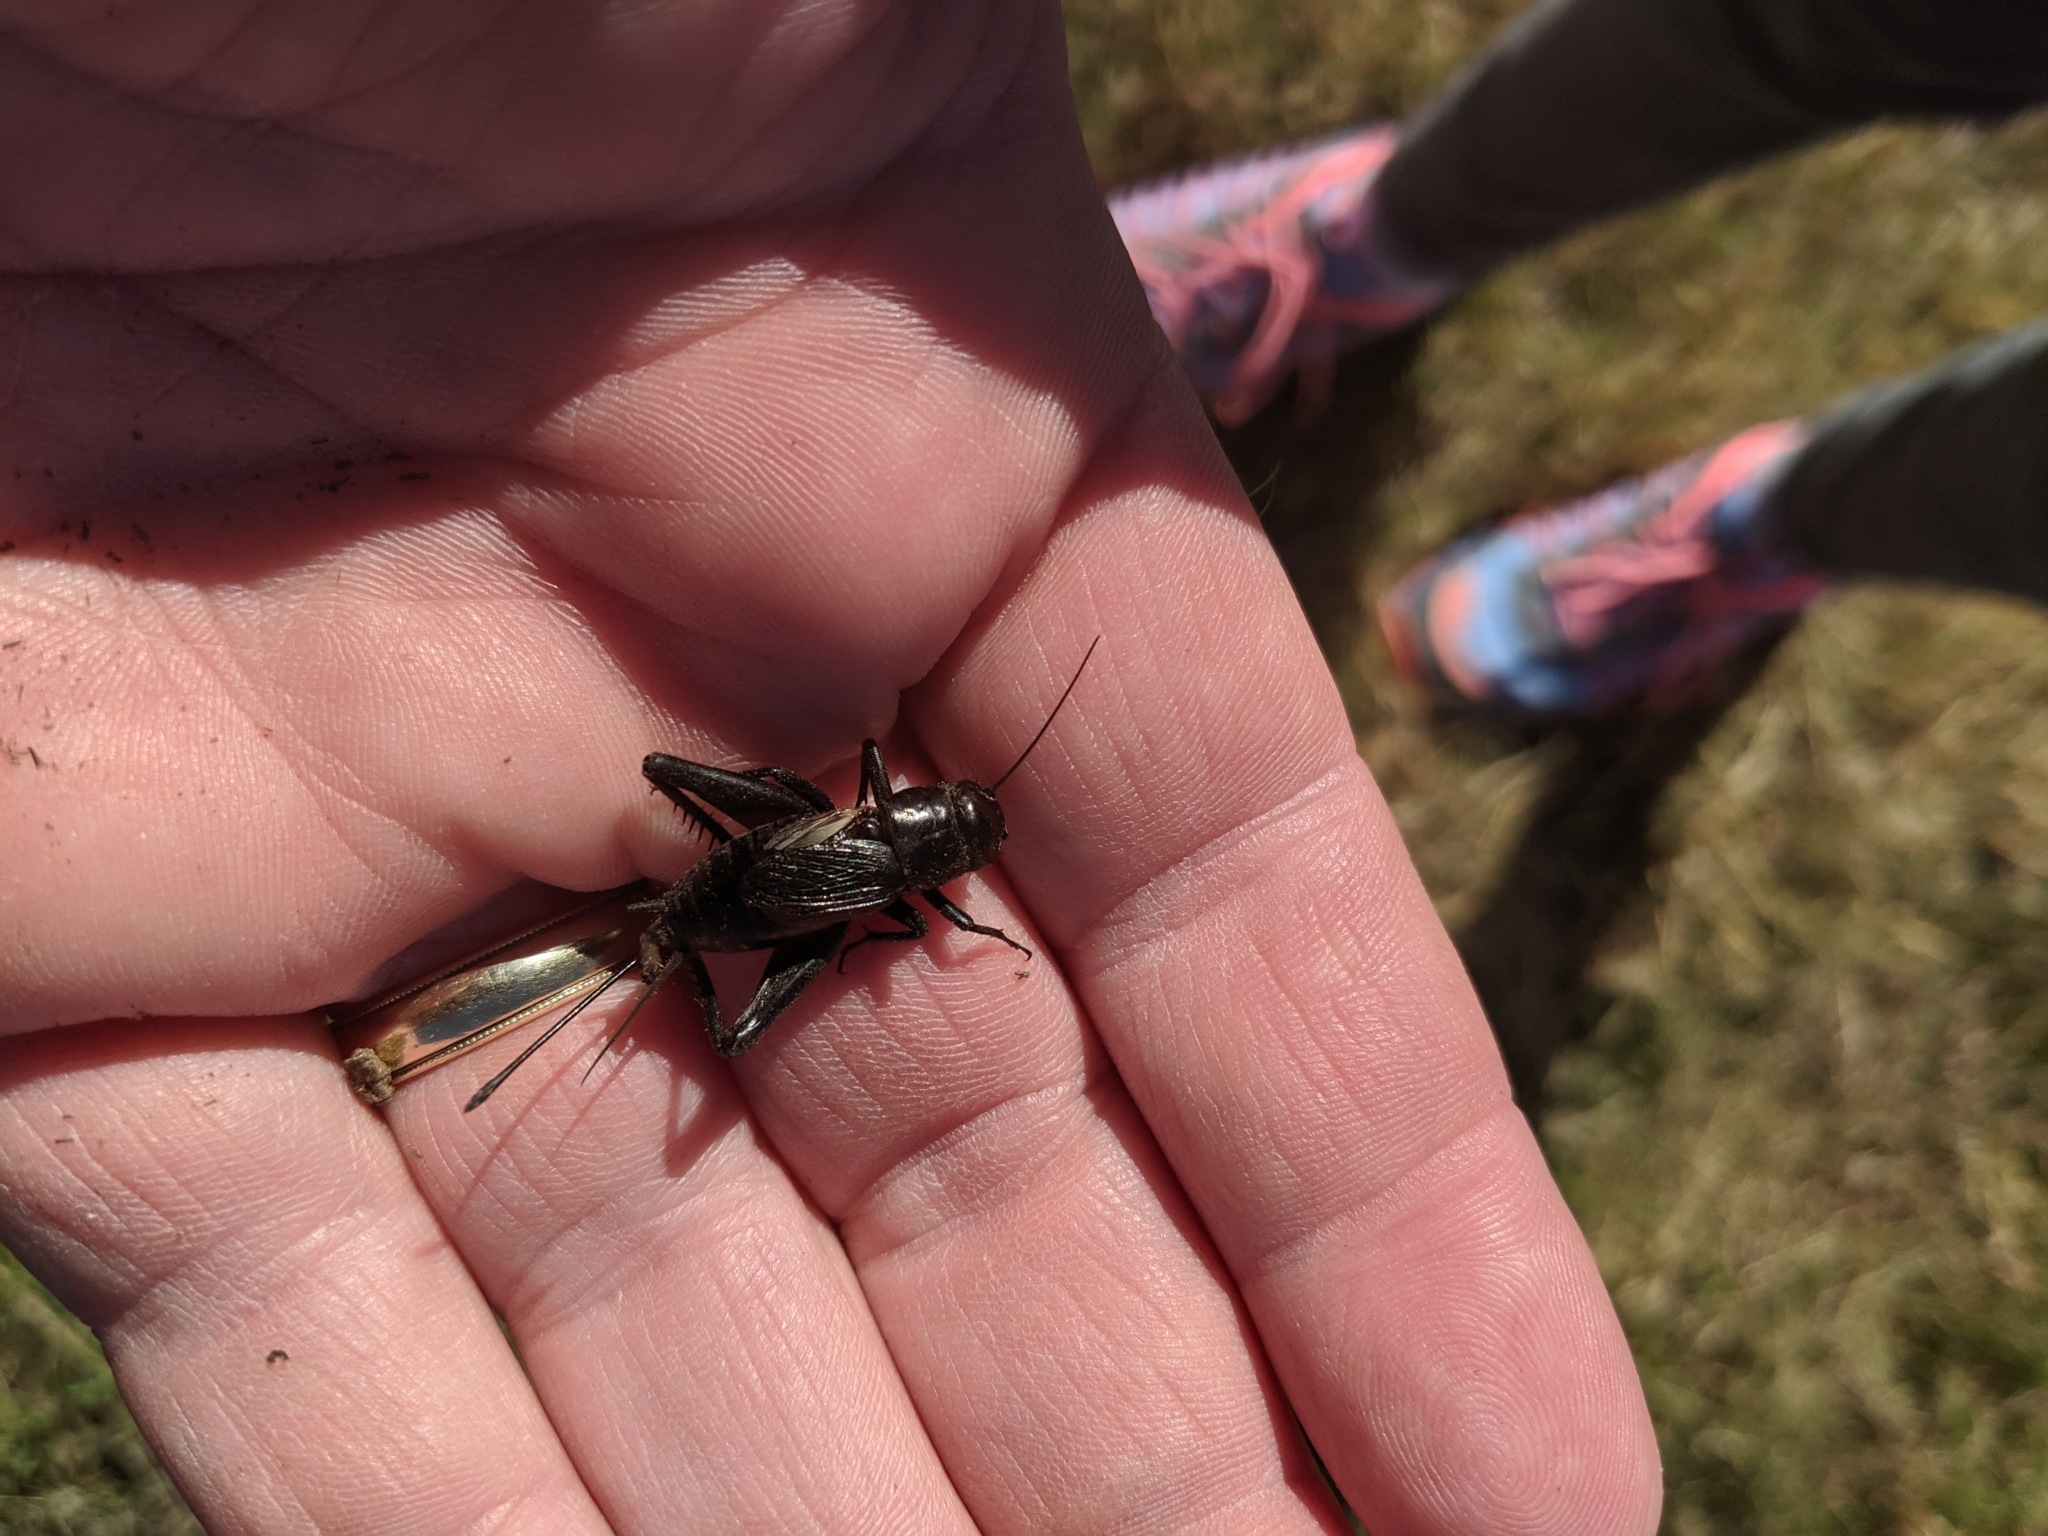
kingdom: Animalia
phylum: Arthropoda
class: Insecta
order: Orthoptera
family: Gryllidae
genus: Gryllus
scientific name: Gryllus pennsylvanicus
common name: Fall field cricket
